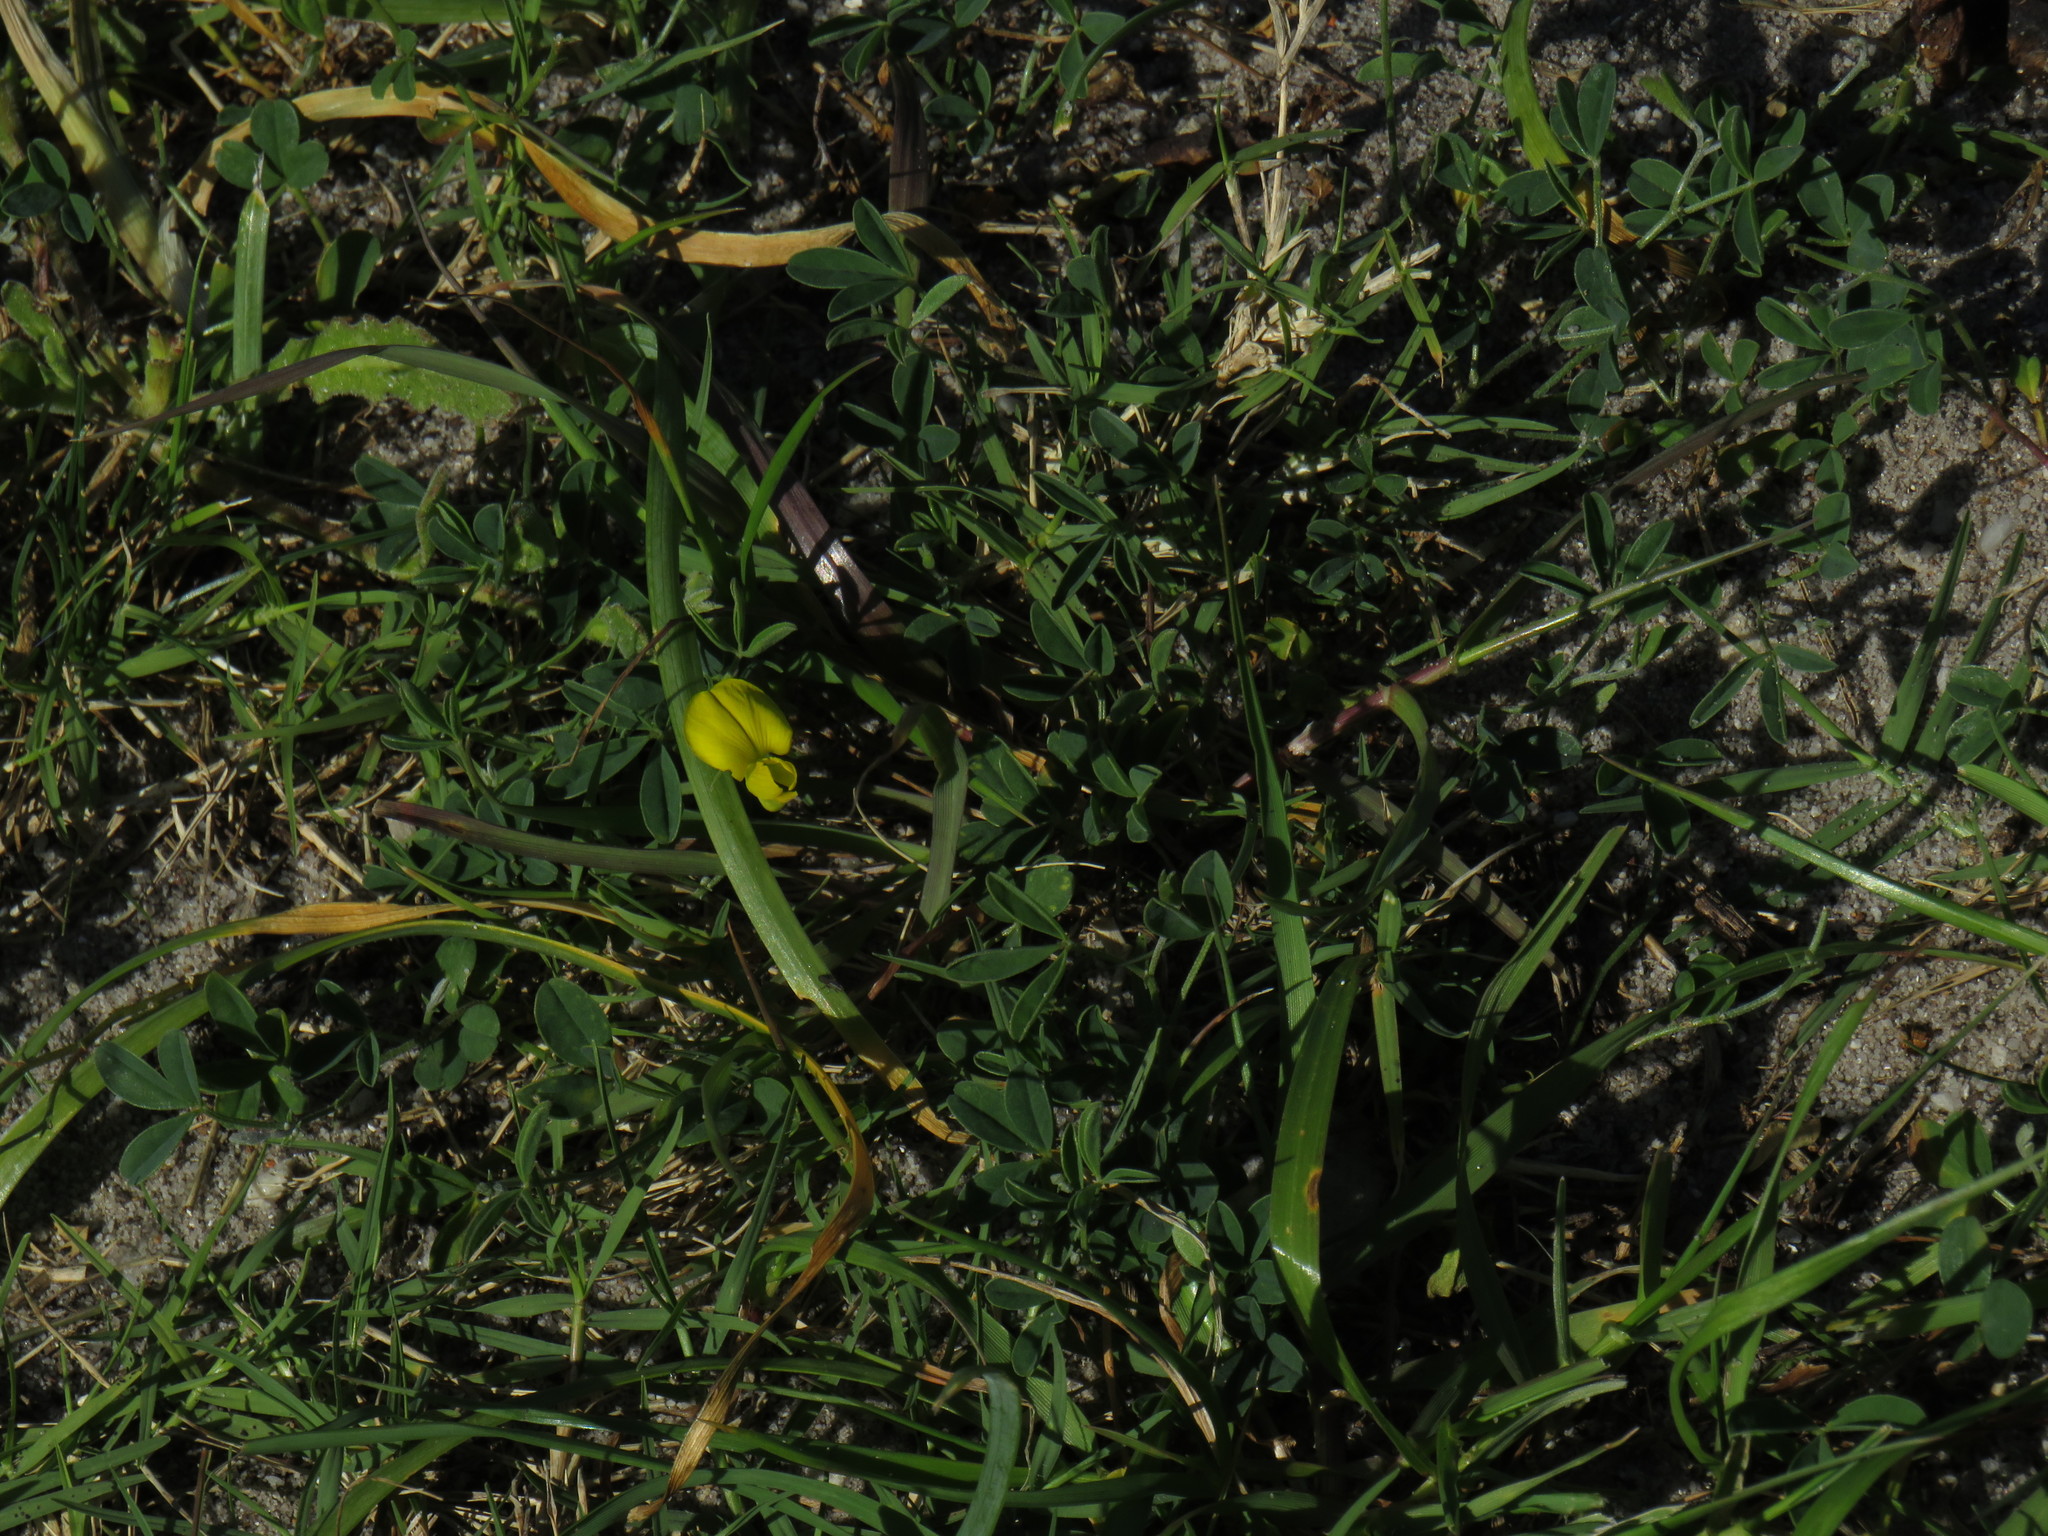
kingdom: Plantae
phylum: Tracheophyta
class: Magnoliopsida
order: Fabales
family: Fabaceae
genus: Crotalaria
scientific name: Crotalaria excisa
